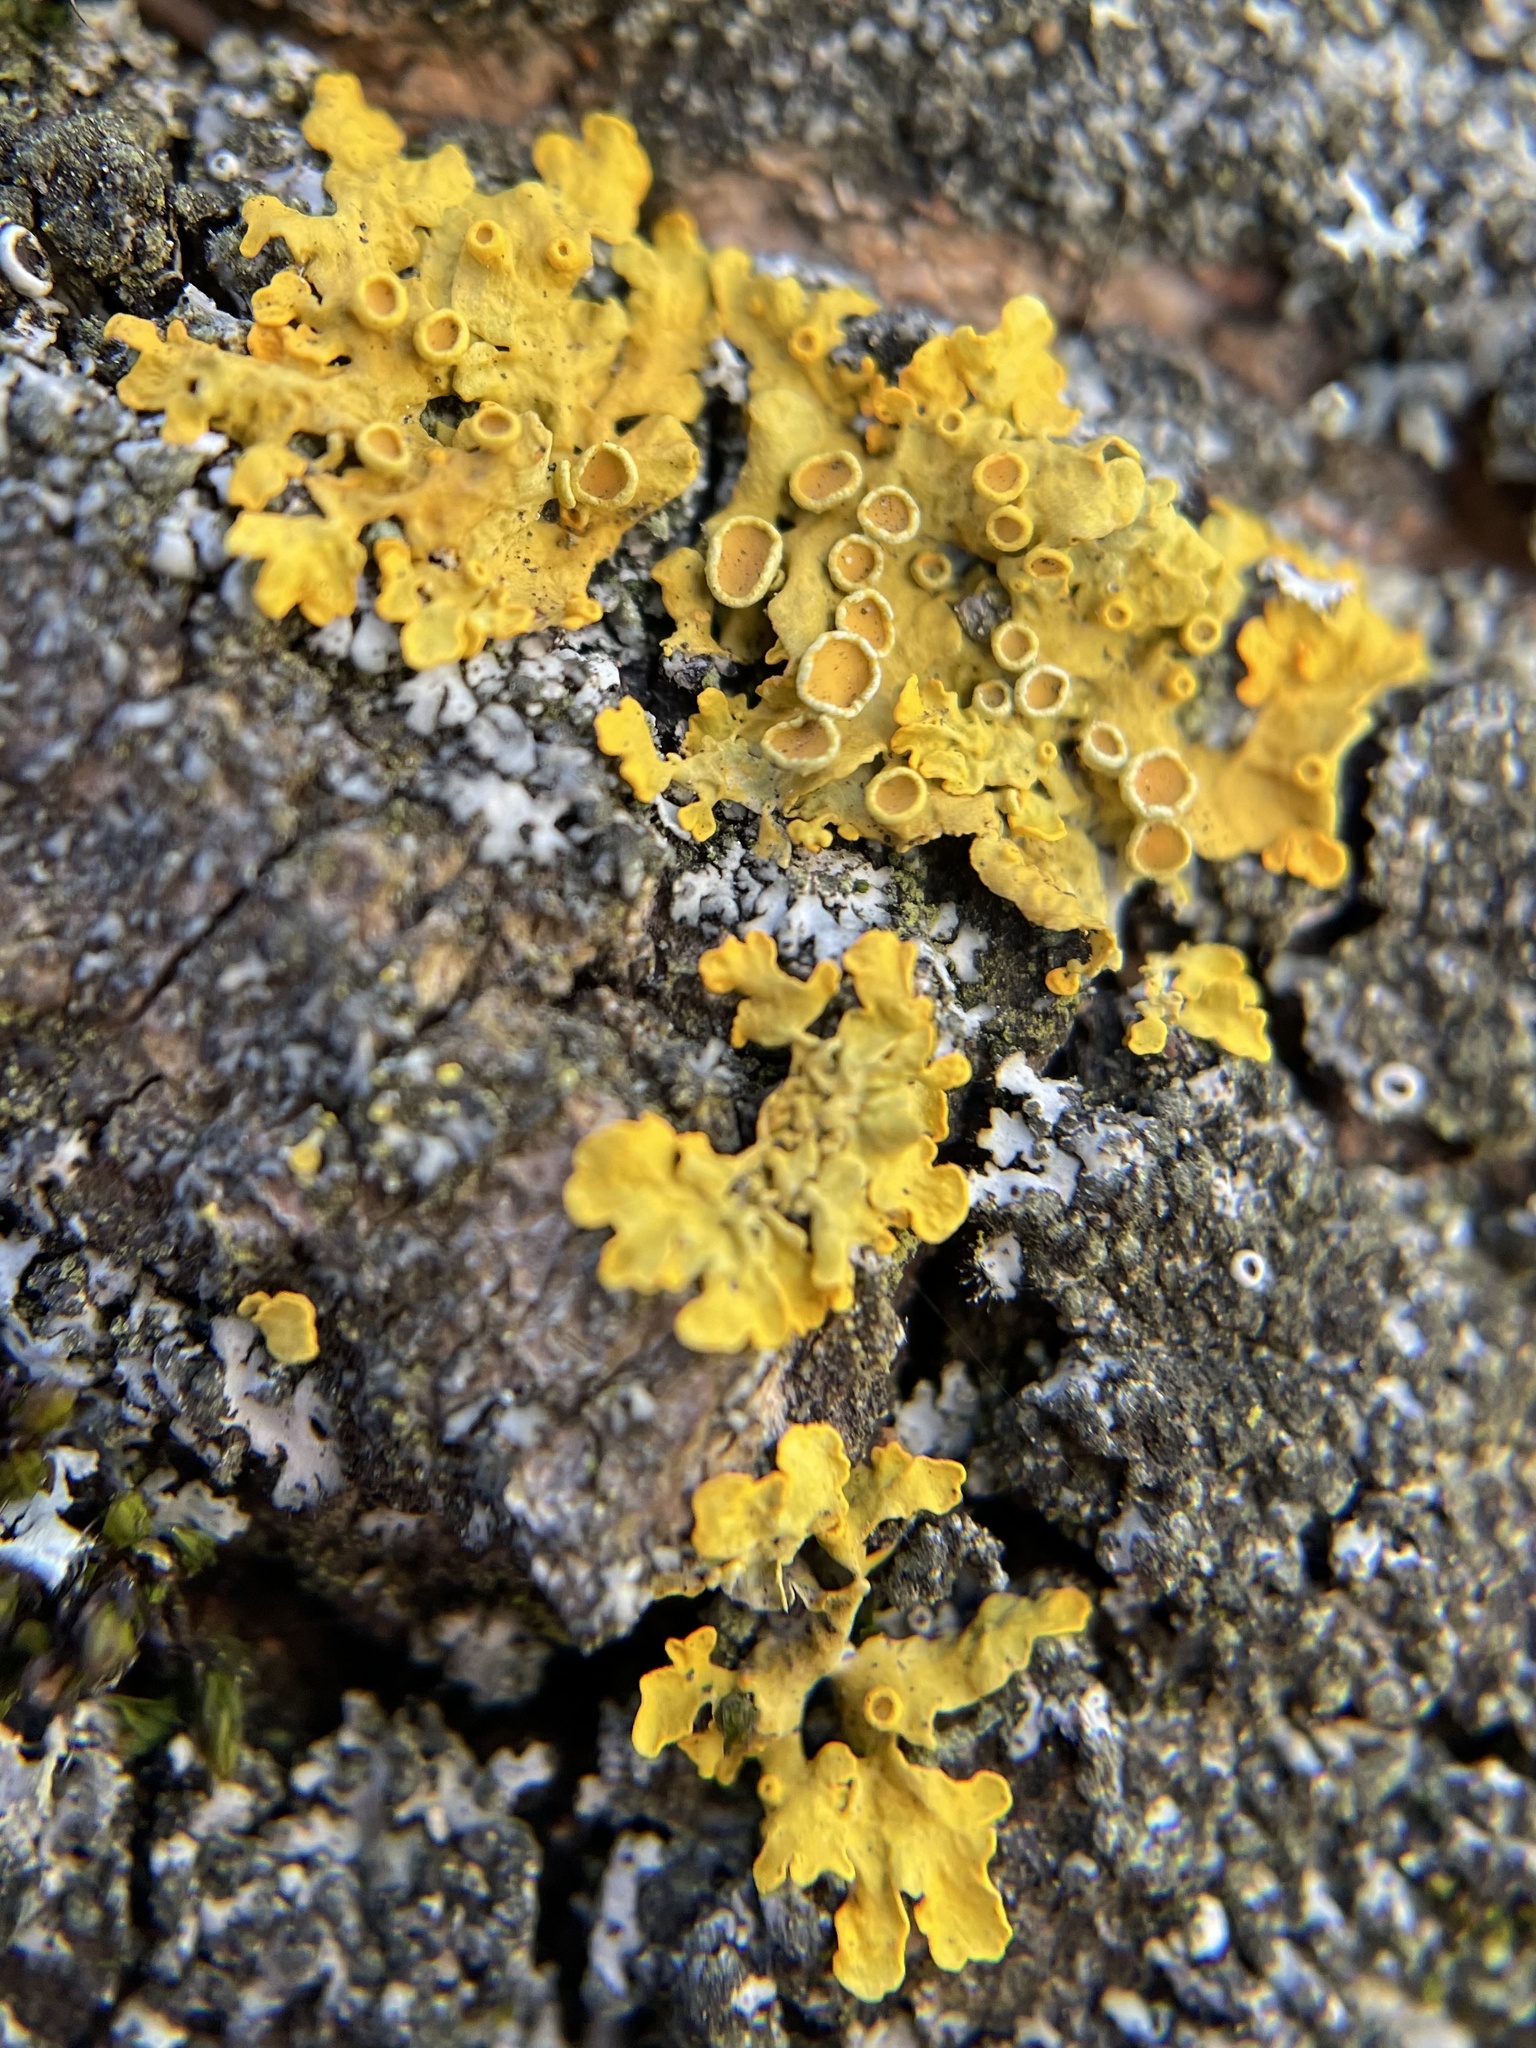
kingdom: Fungi
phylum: Ascomycota
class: Lecanoromycetes
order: Teloschistales
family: Teloschistaceae
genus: Xanthoria
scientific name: Xanthoria parietina
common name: Common orange lichen
